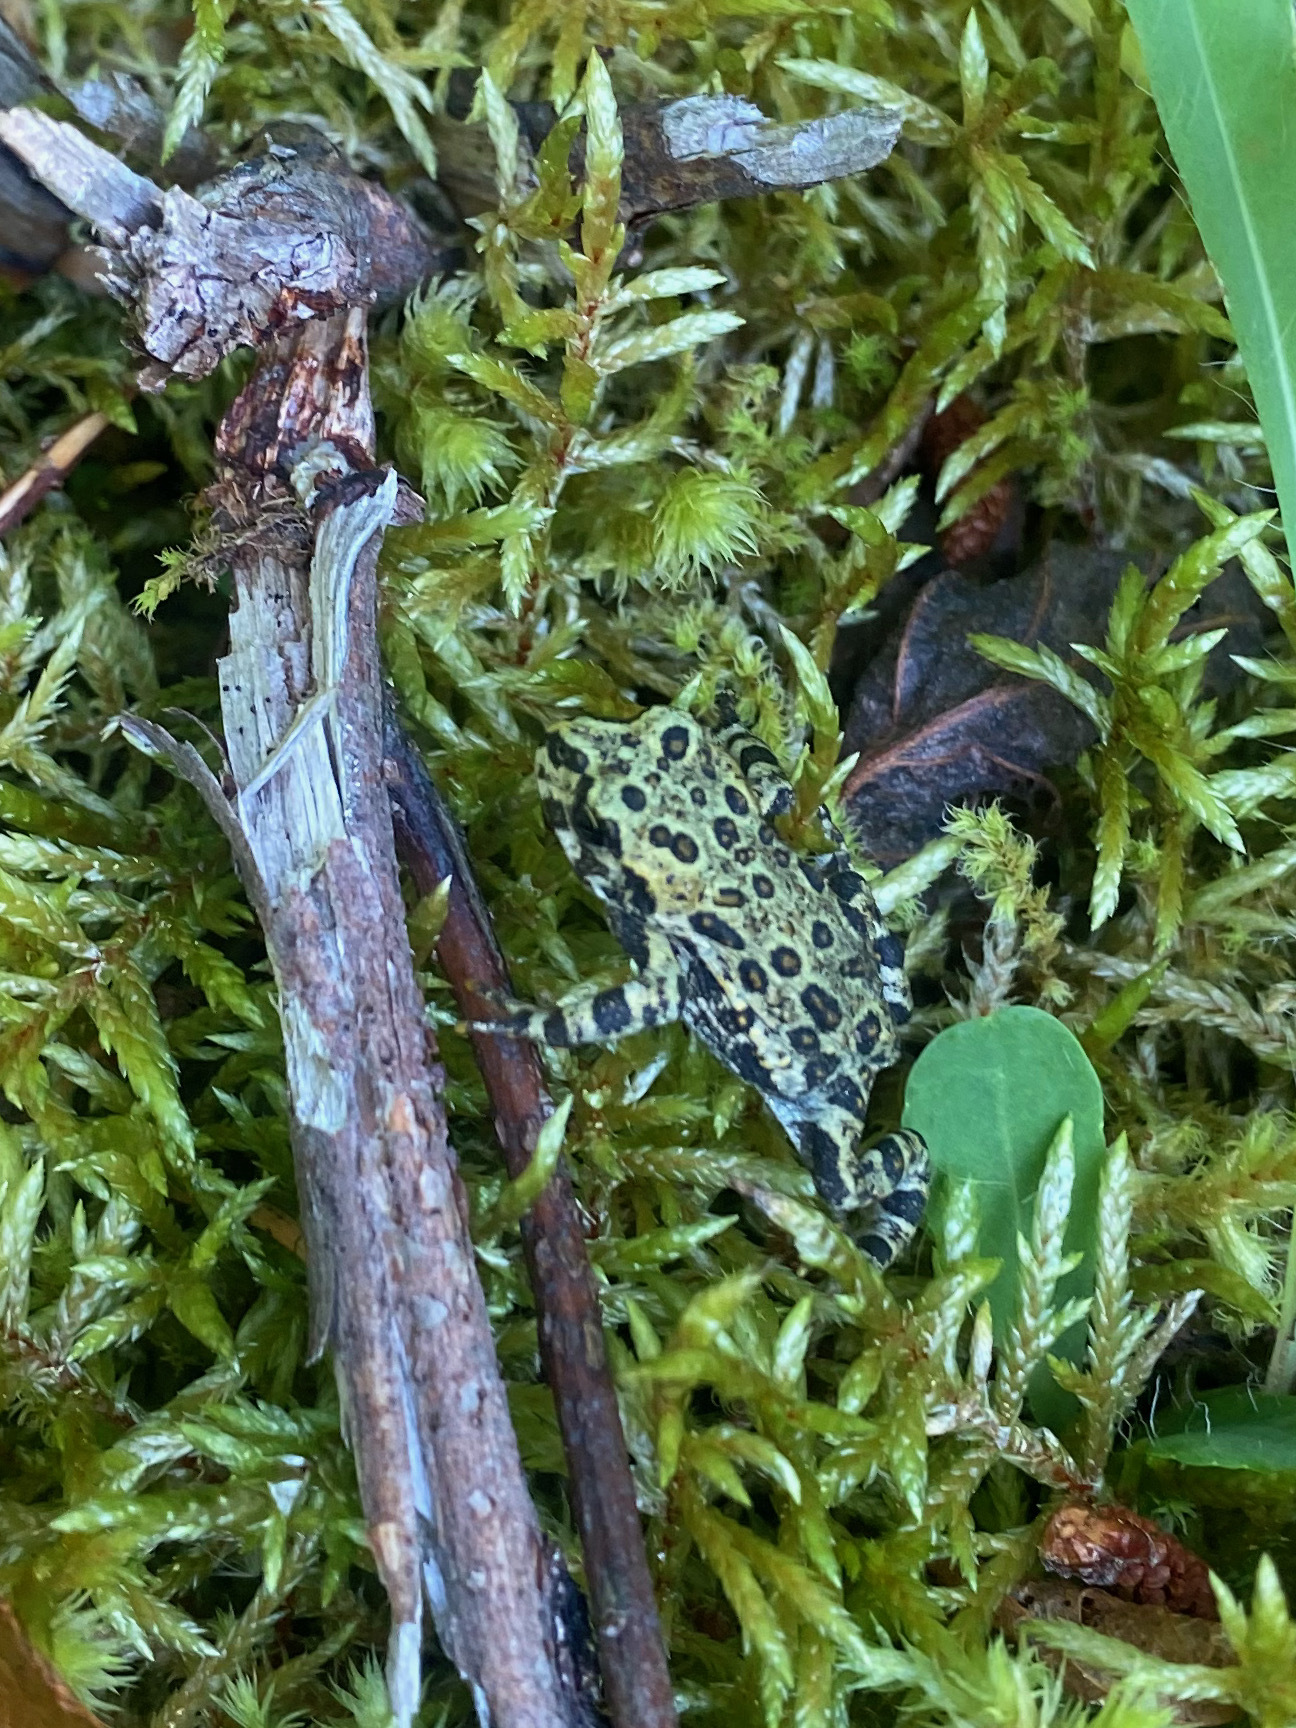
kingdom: Animalia
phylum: Chordata
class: Amphibia
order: Anura
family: Bufonidae
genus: Anaxyrus
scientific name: Anaxyrus boreas
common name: Western toad
